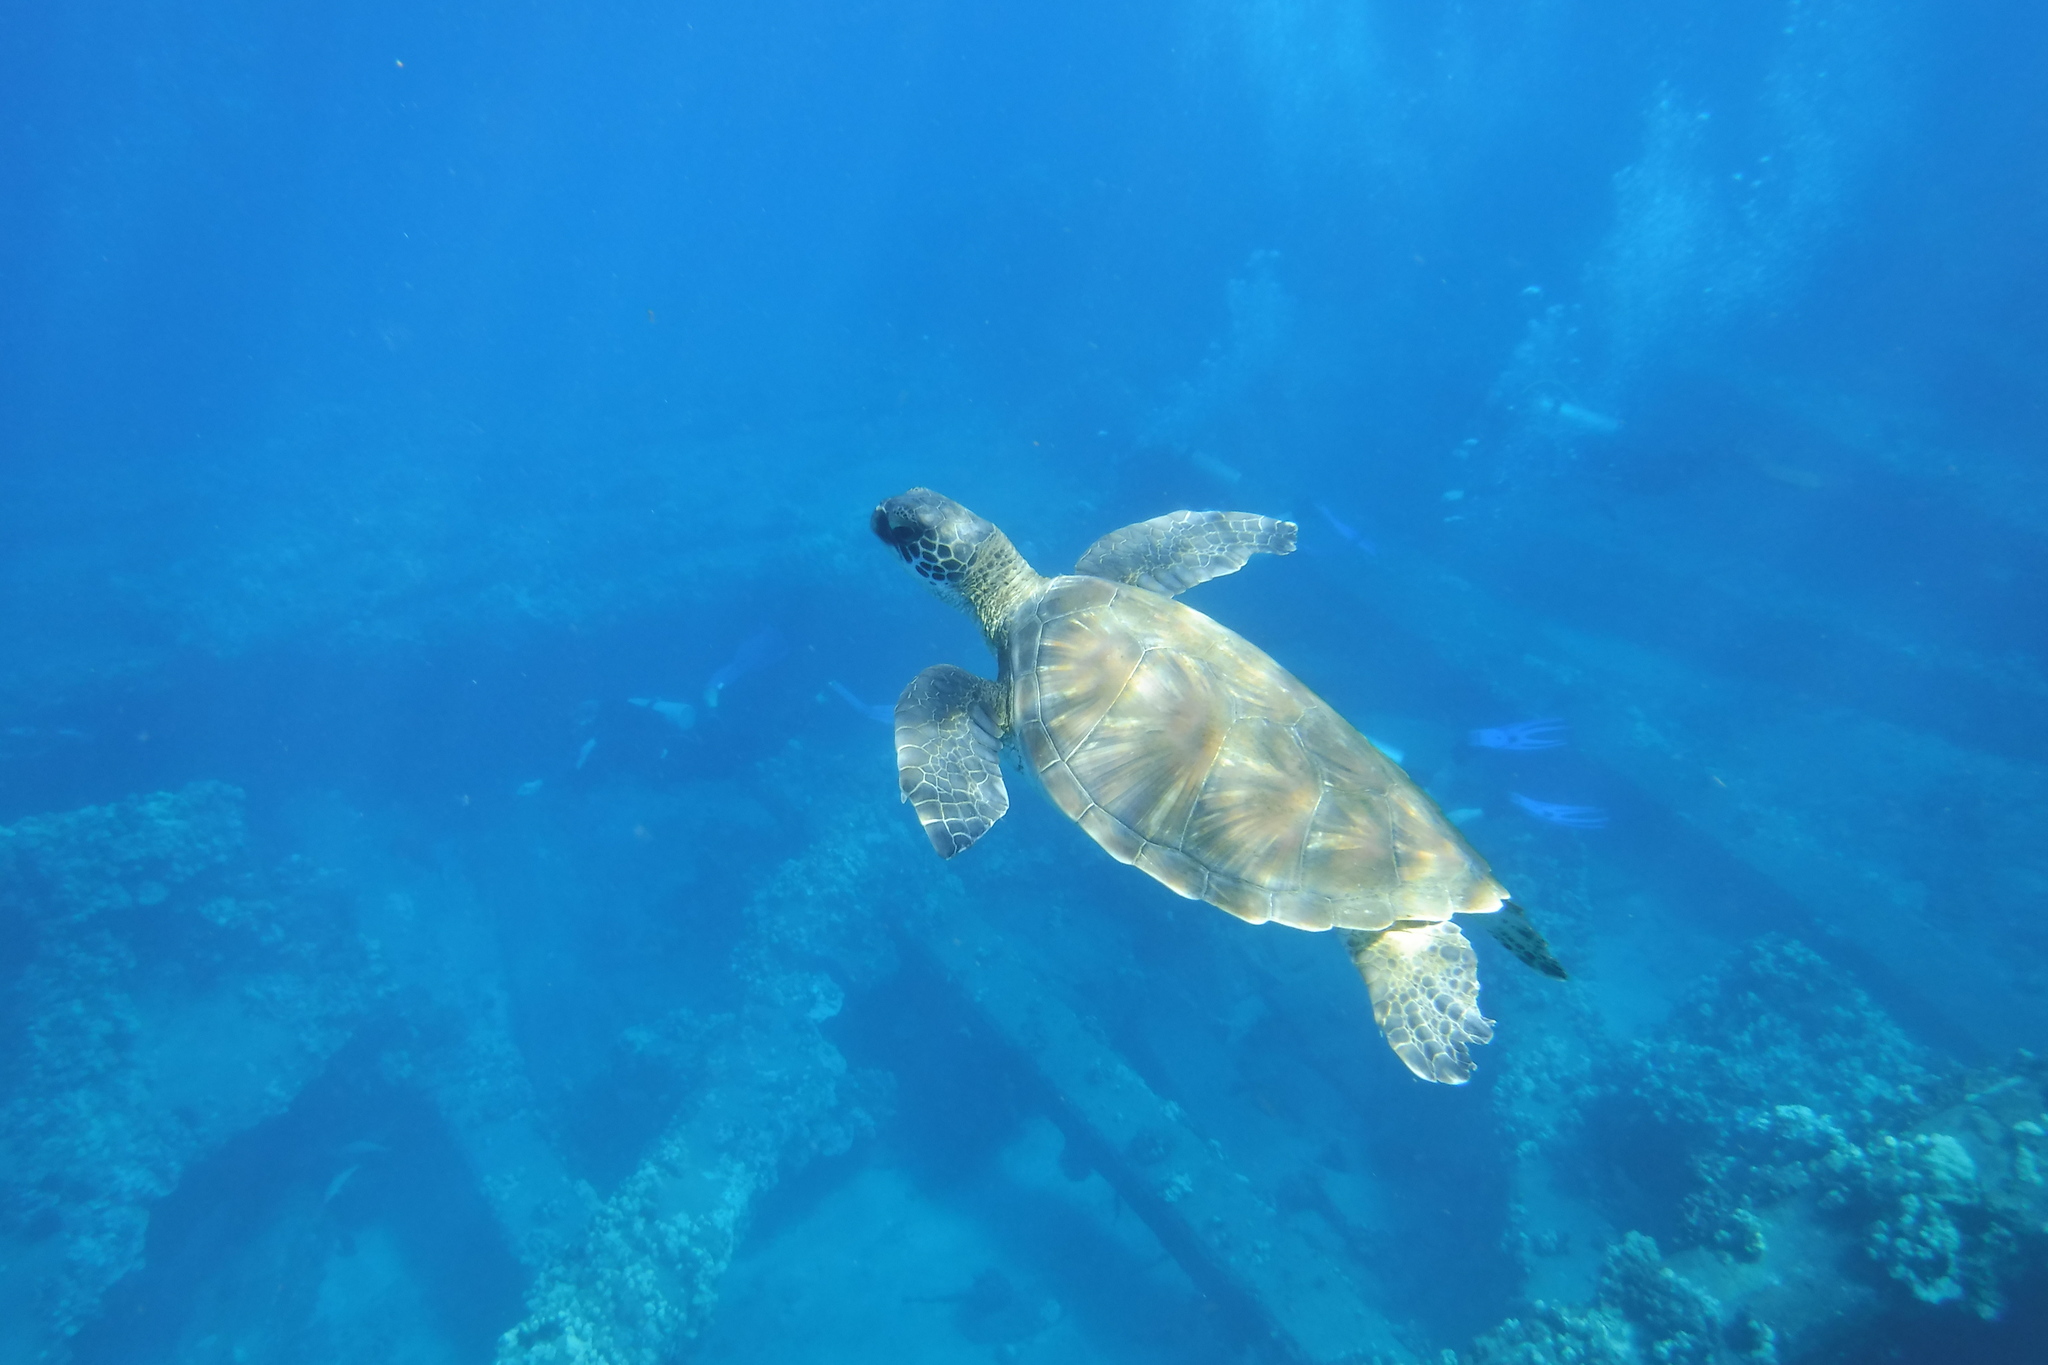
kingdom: Animalia
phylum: Chordata
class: Testudines
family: Cheloniidae
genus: Chelonia
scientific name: Chelonia mydas
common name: Green turtle
